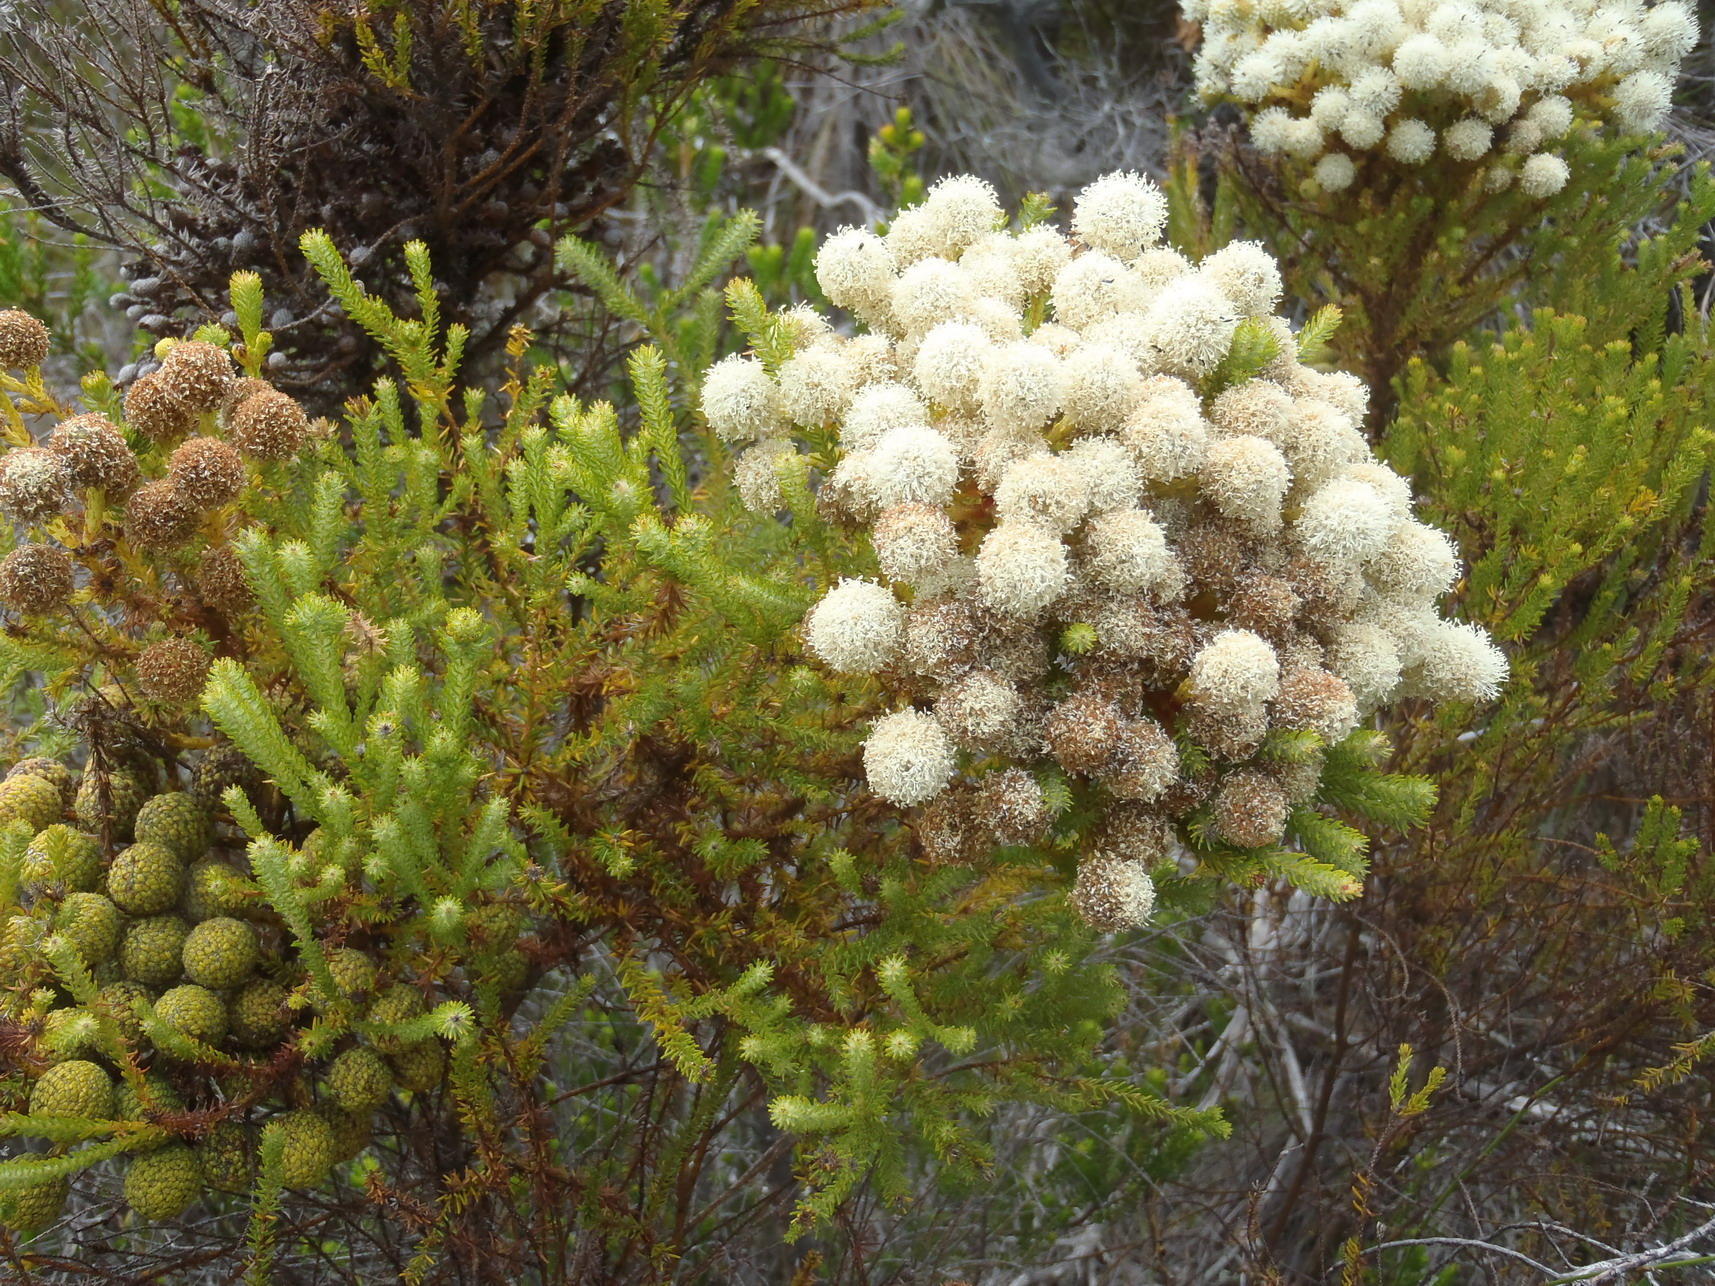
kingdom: Plantae
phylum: Tracheophyta
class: Magnoliopsida
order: Bruniales
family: Bruniaceae
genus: Berzelia
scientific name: Berzelia intermedia
